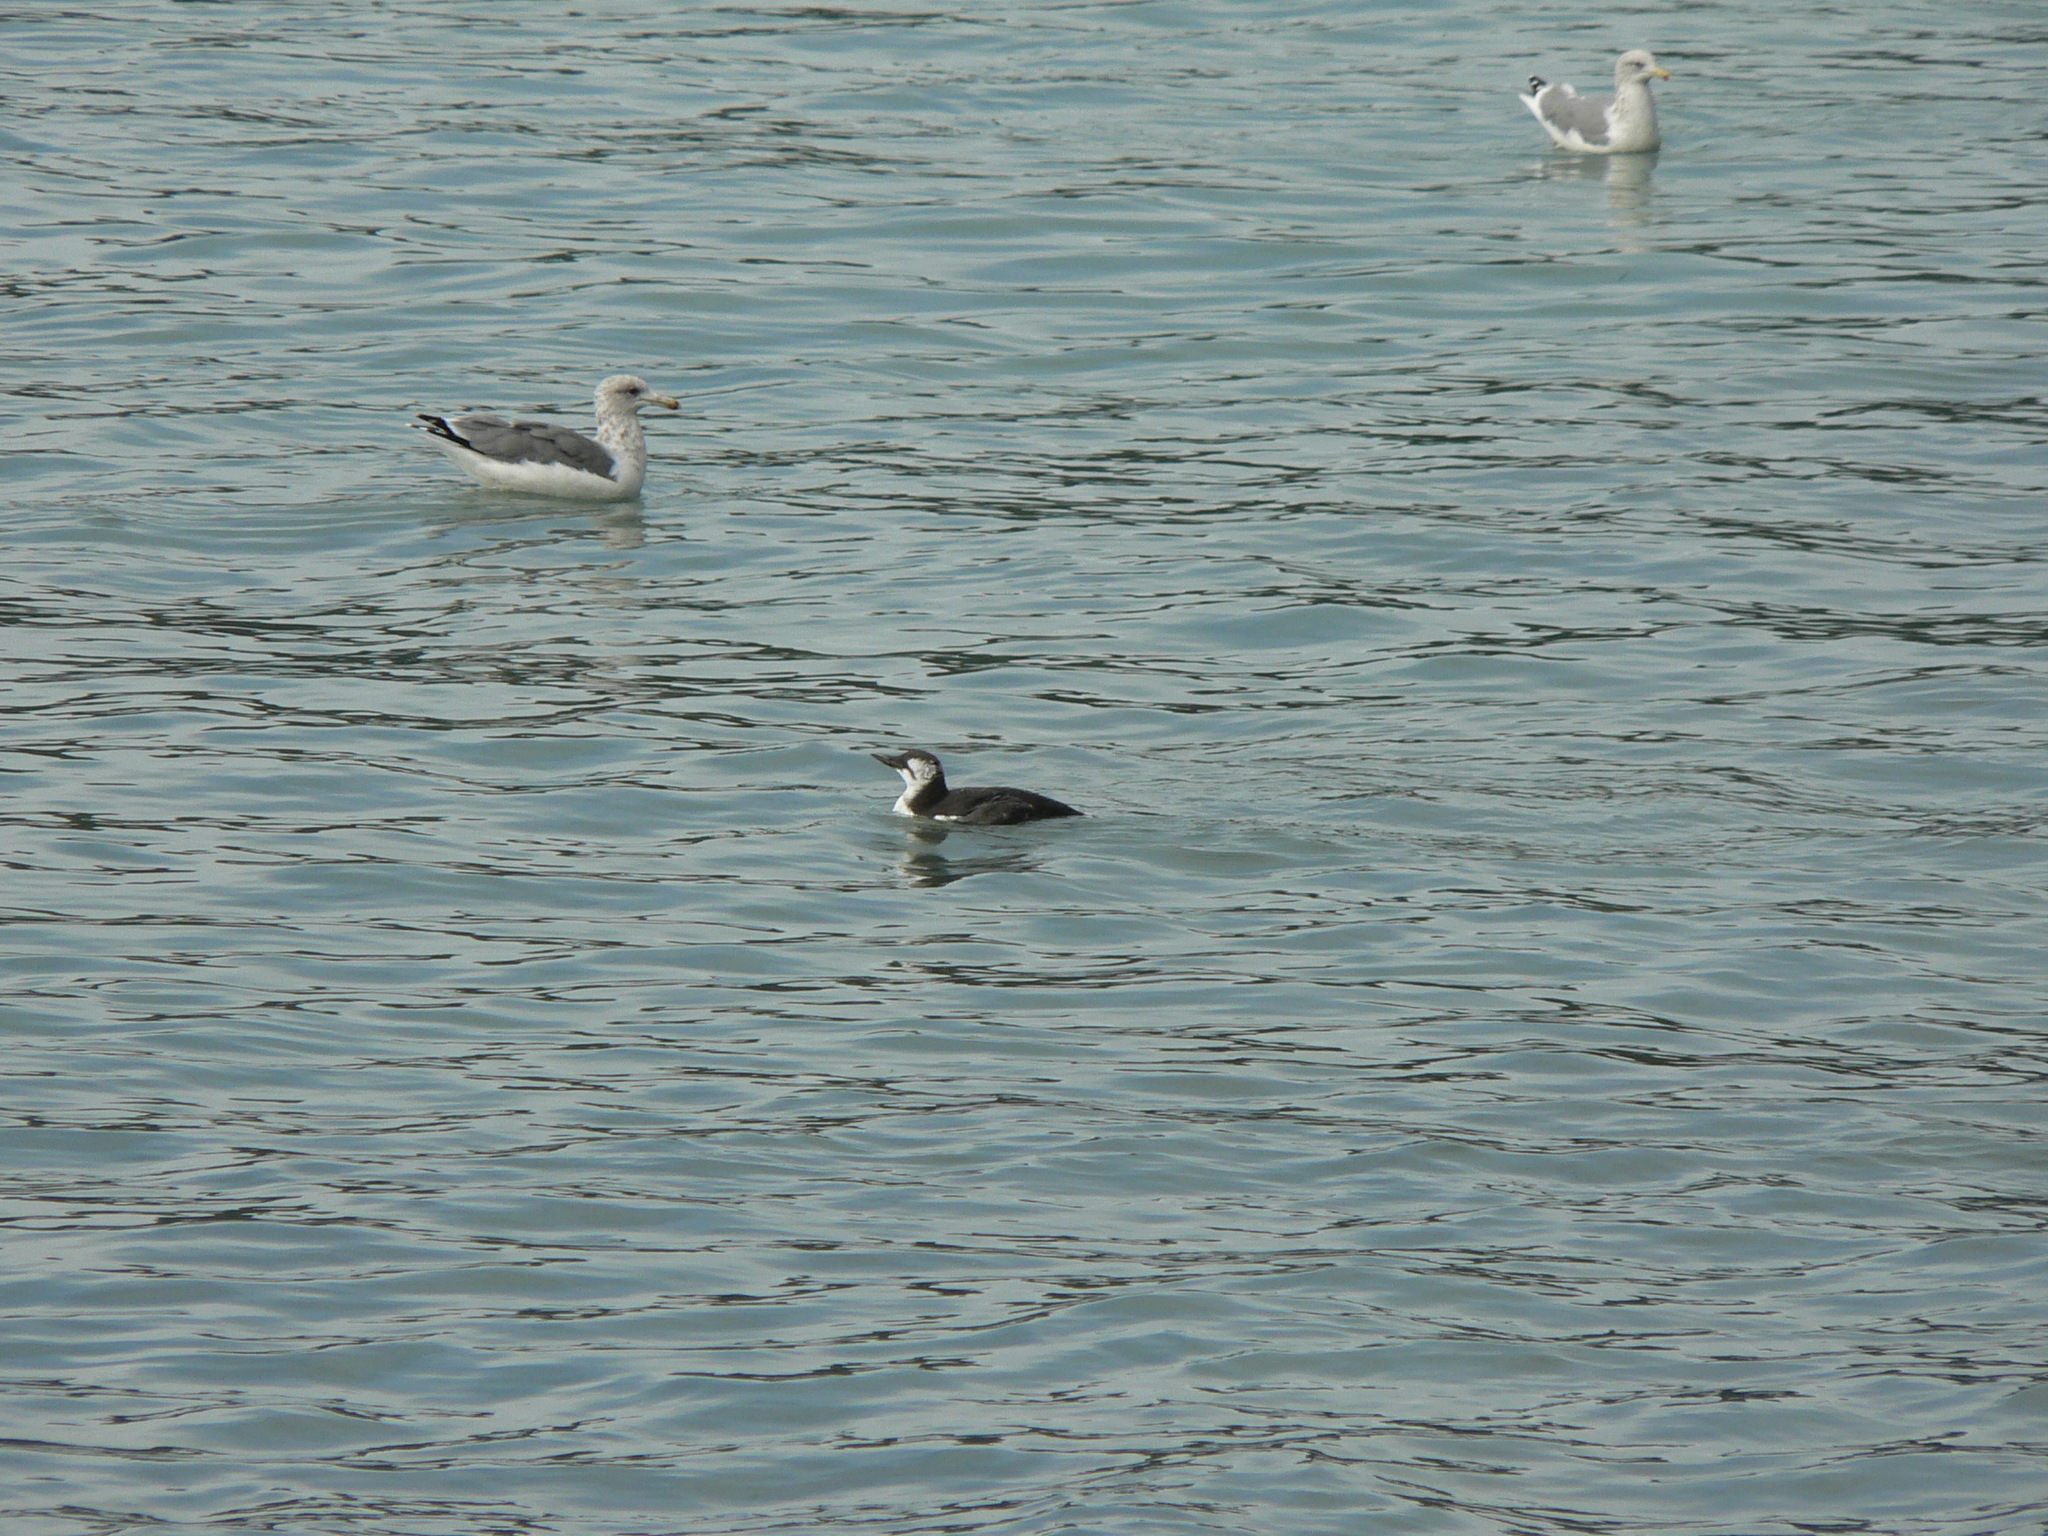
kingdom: Animalia
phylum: Chordata
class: Aves
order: Charadriiformes
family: Alcidae
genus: Uria
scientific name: Uria aalge
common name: Common murre
